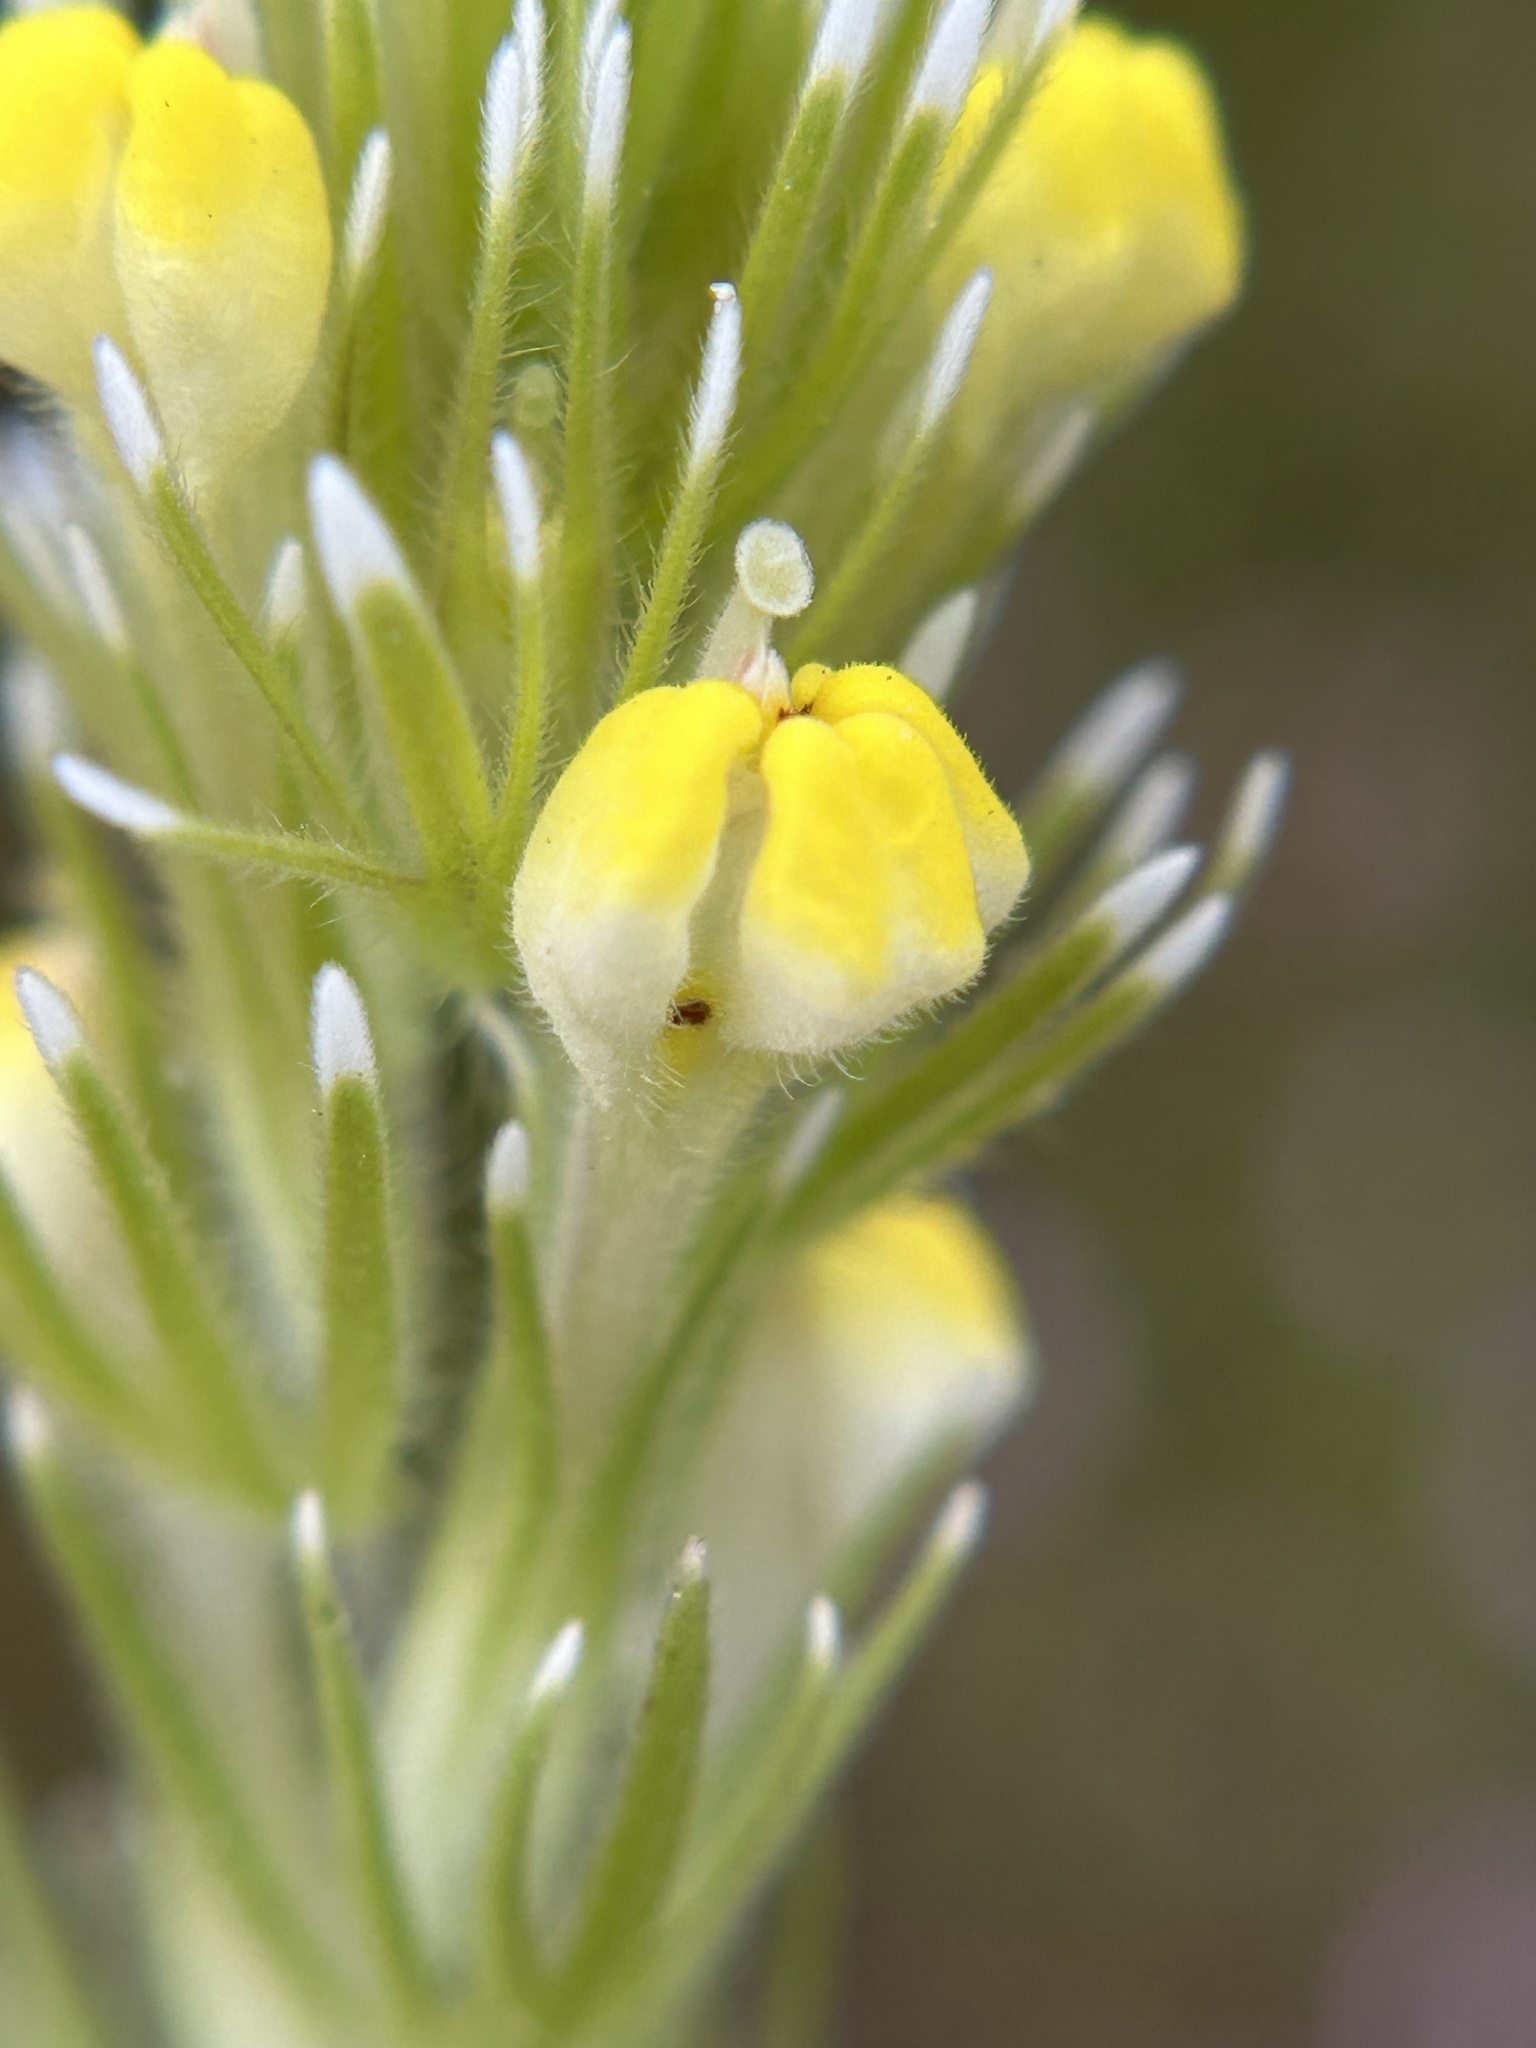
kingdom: Plantae
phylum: Tracheophyta
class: Magnoliopsida
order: Lamiales
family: Orobanchaceae
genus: Castilleja
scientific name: Castilleja lineariloba
